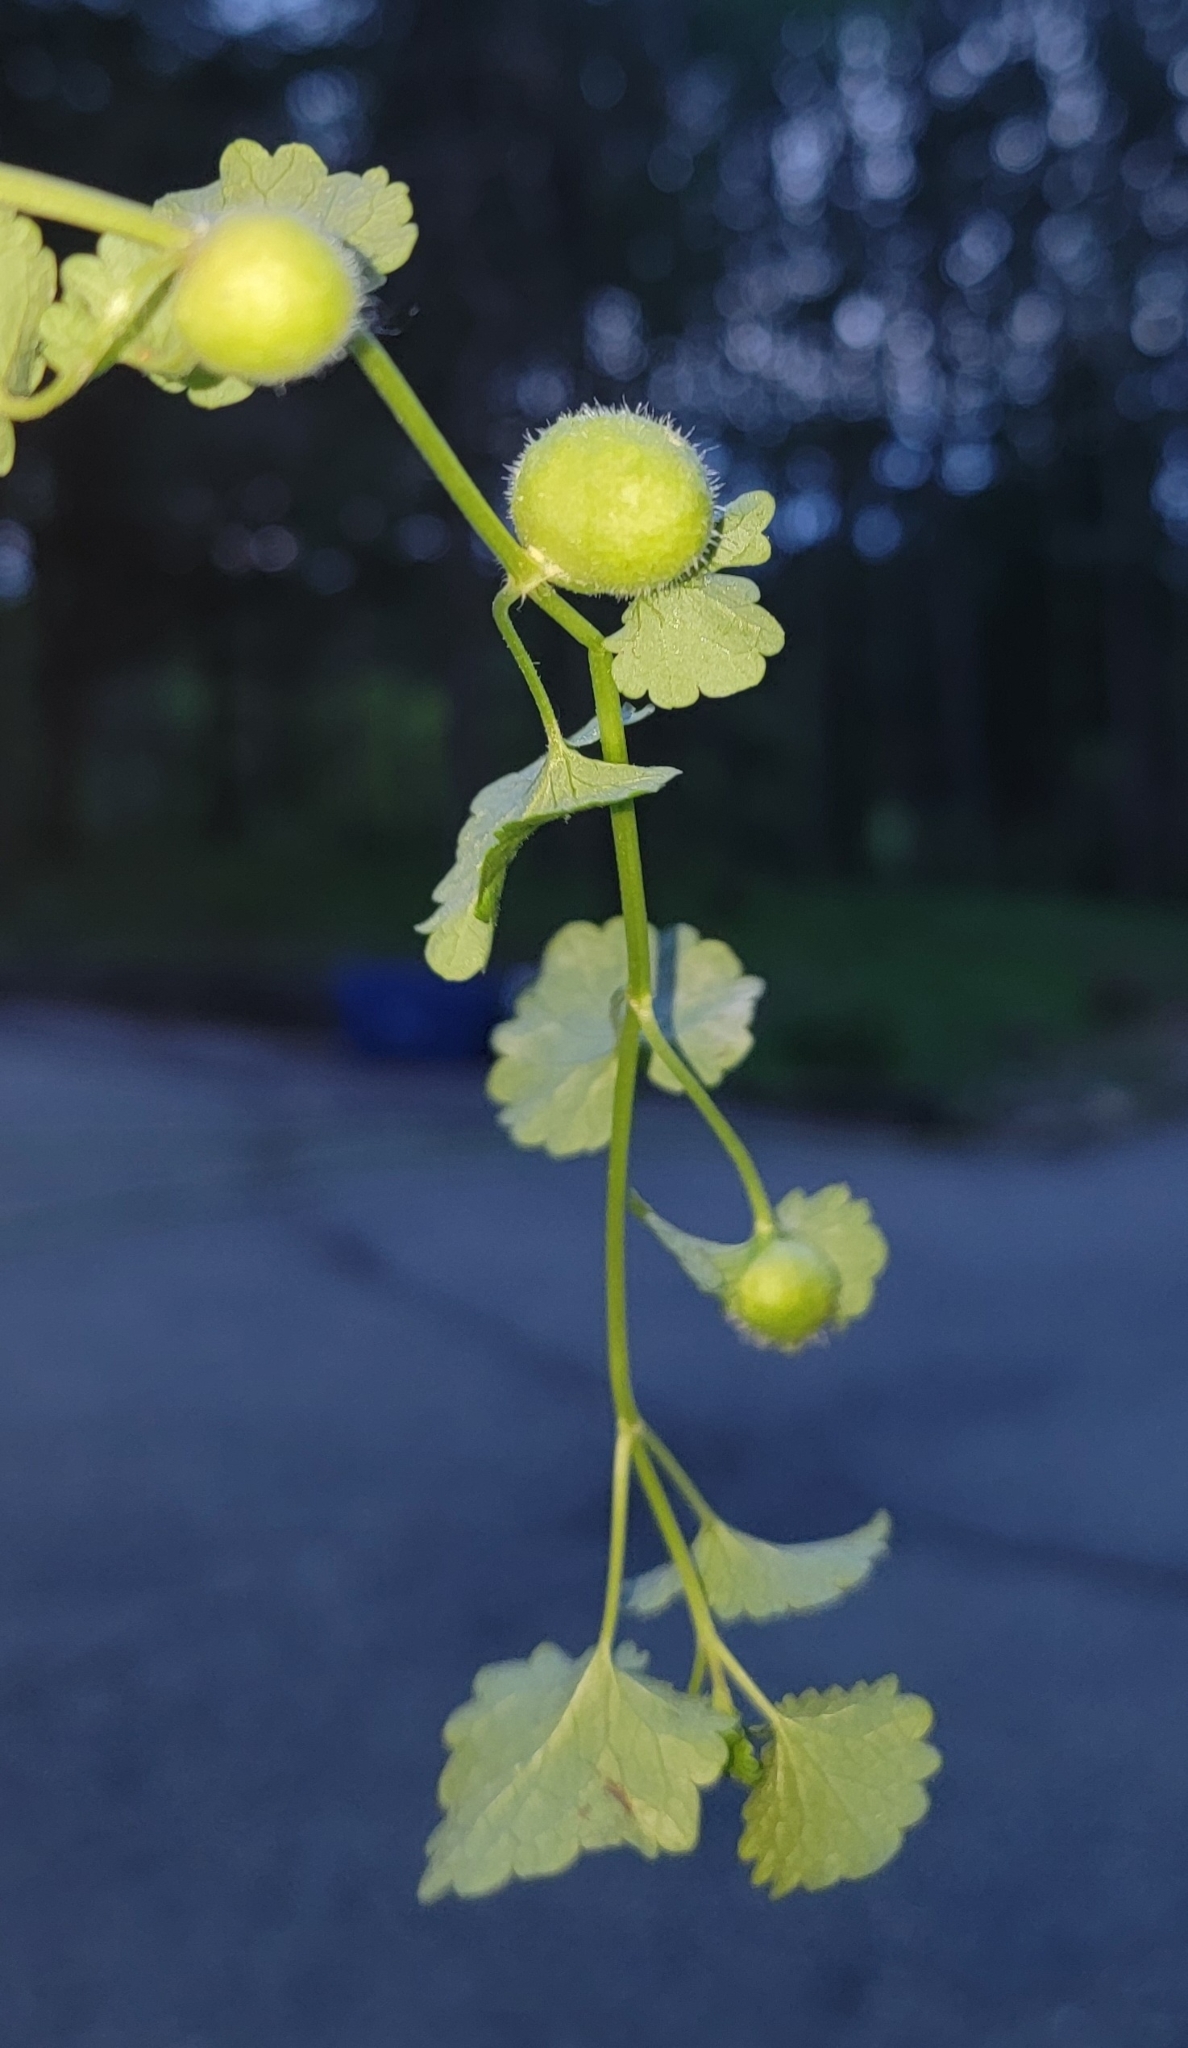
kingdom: Animalia
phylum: Arthropoda
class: Insecta
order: Hymenoptera
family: Cynipidae
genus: Liposthenes
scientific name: Liposthenes glechomae
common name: Gall wasp
